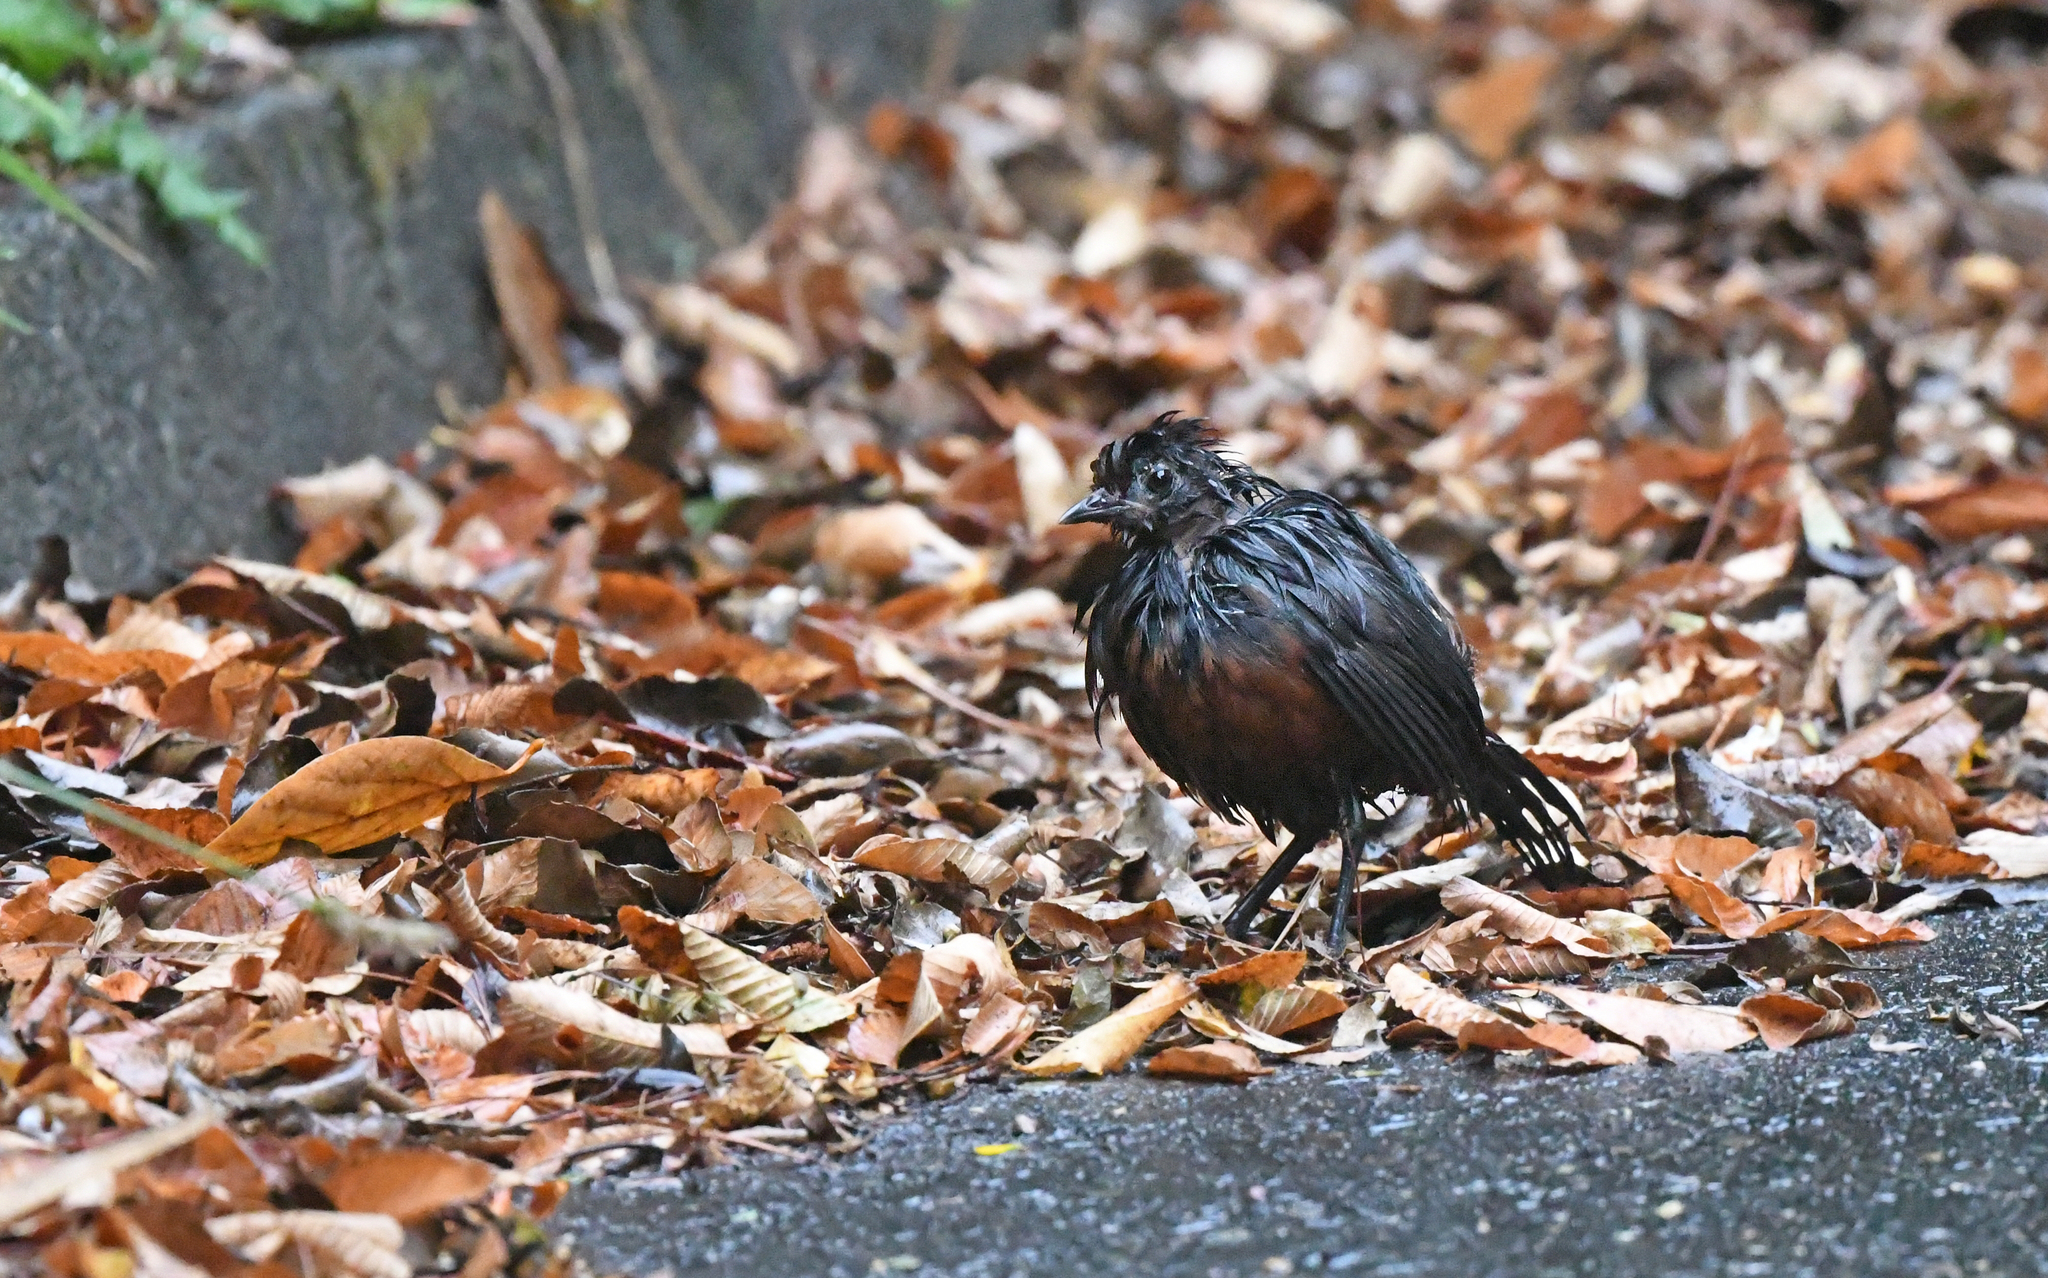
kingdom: Animalia
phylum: Chordata
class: Aves
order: Passeriformes
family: Rhinocryptidae
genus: Pteroptochos
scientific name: Pteroptochos tarnii
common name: Black-throated huet-huet
